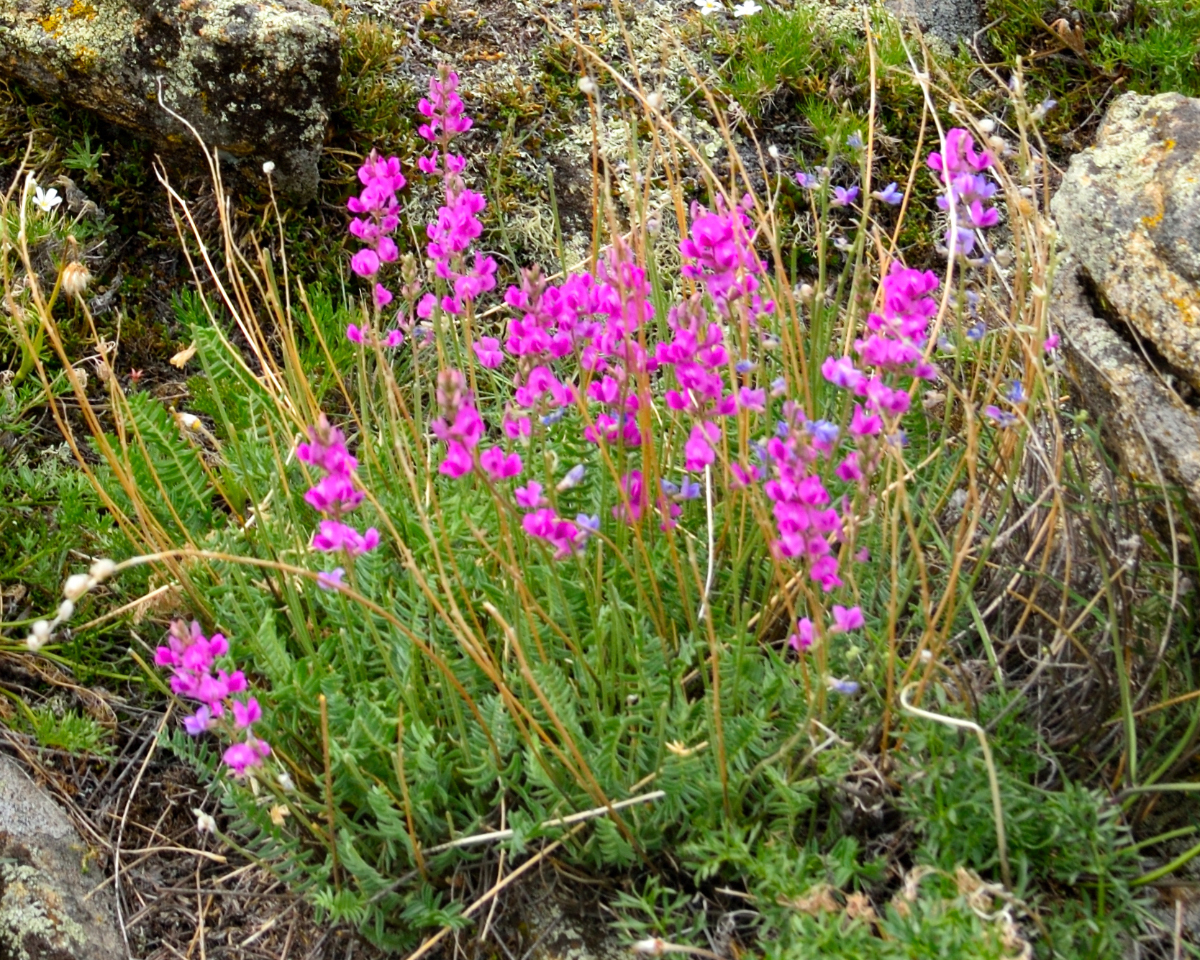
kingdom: Plantae
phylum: Tracheophyta
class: Magnoliopsida
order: Fabales
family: Fabaceae
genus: Oxytropis
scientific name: Oxytropis coerulea
